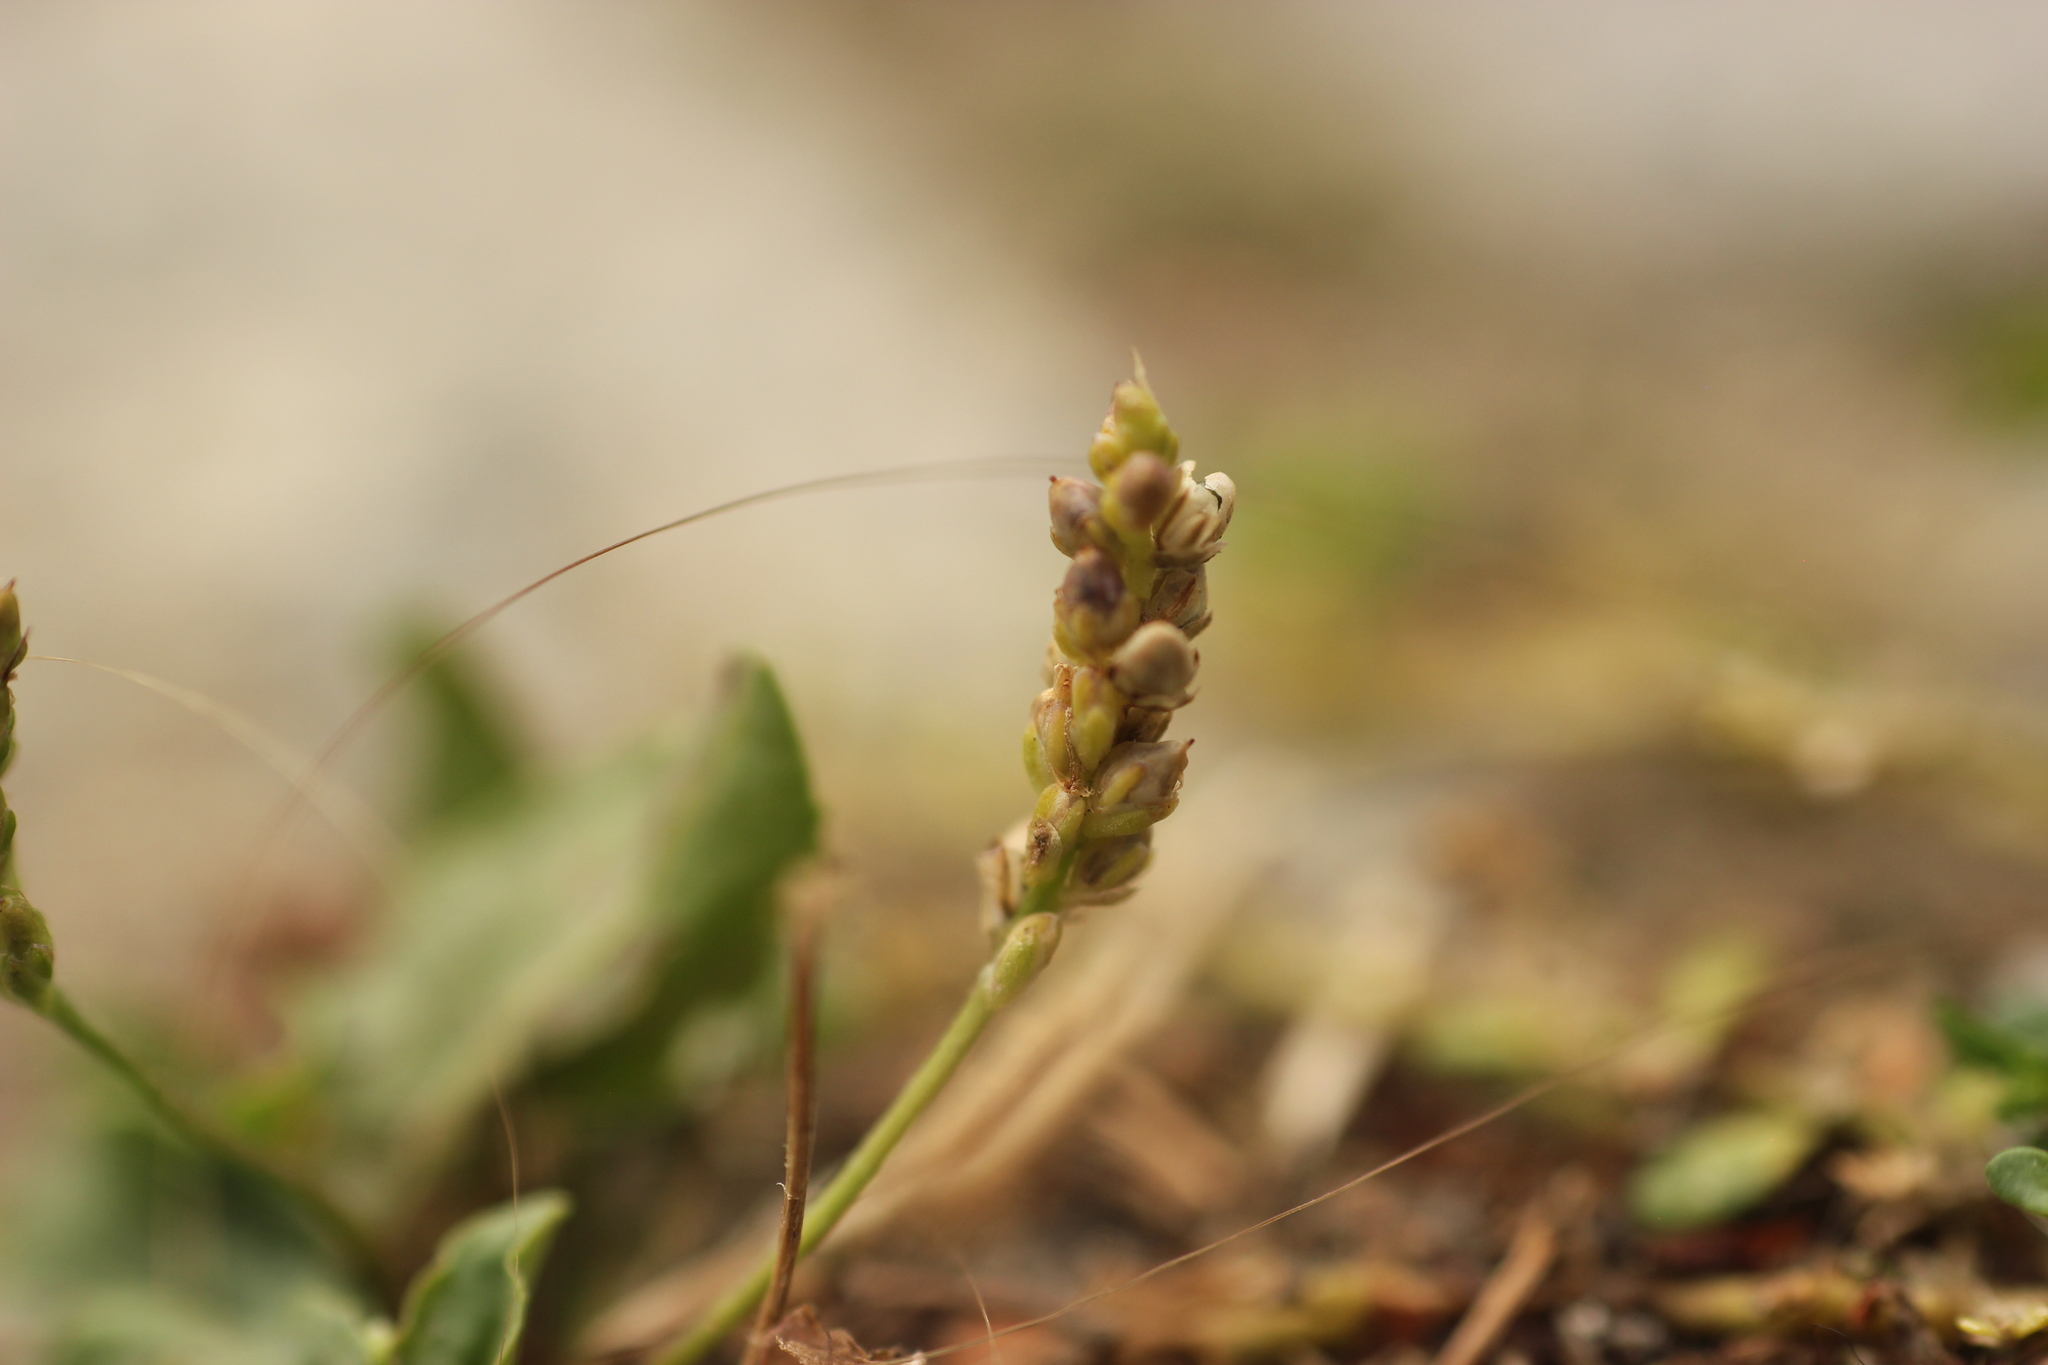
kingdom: Plantae
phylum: Tracheophyta
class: Magnoliopsida
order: Lamiales
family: Plantaginaceae
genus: Plantago
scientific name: Plantago uliginosa
